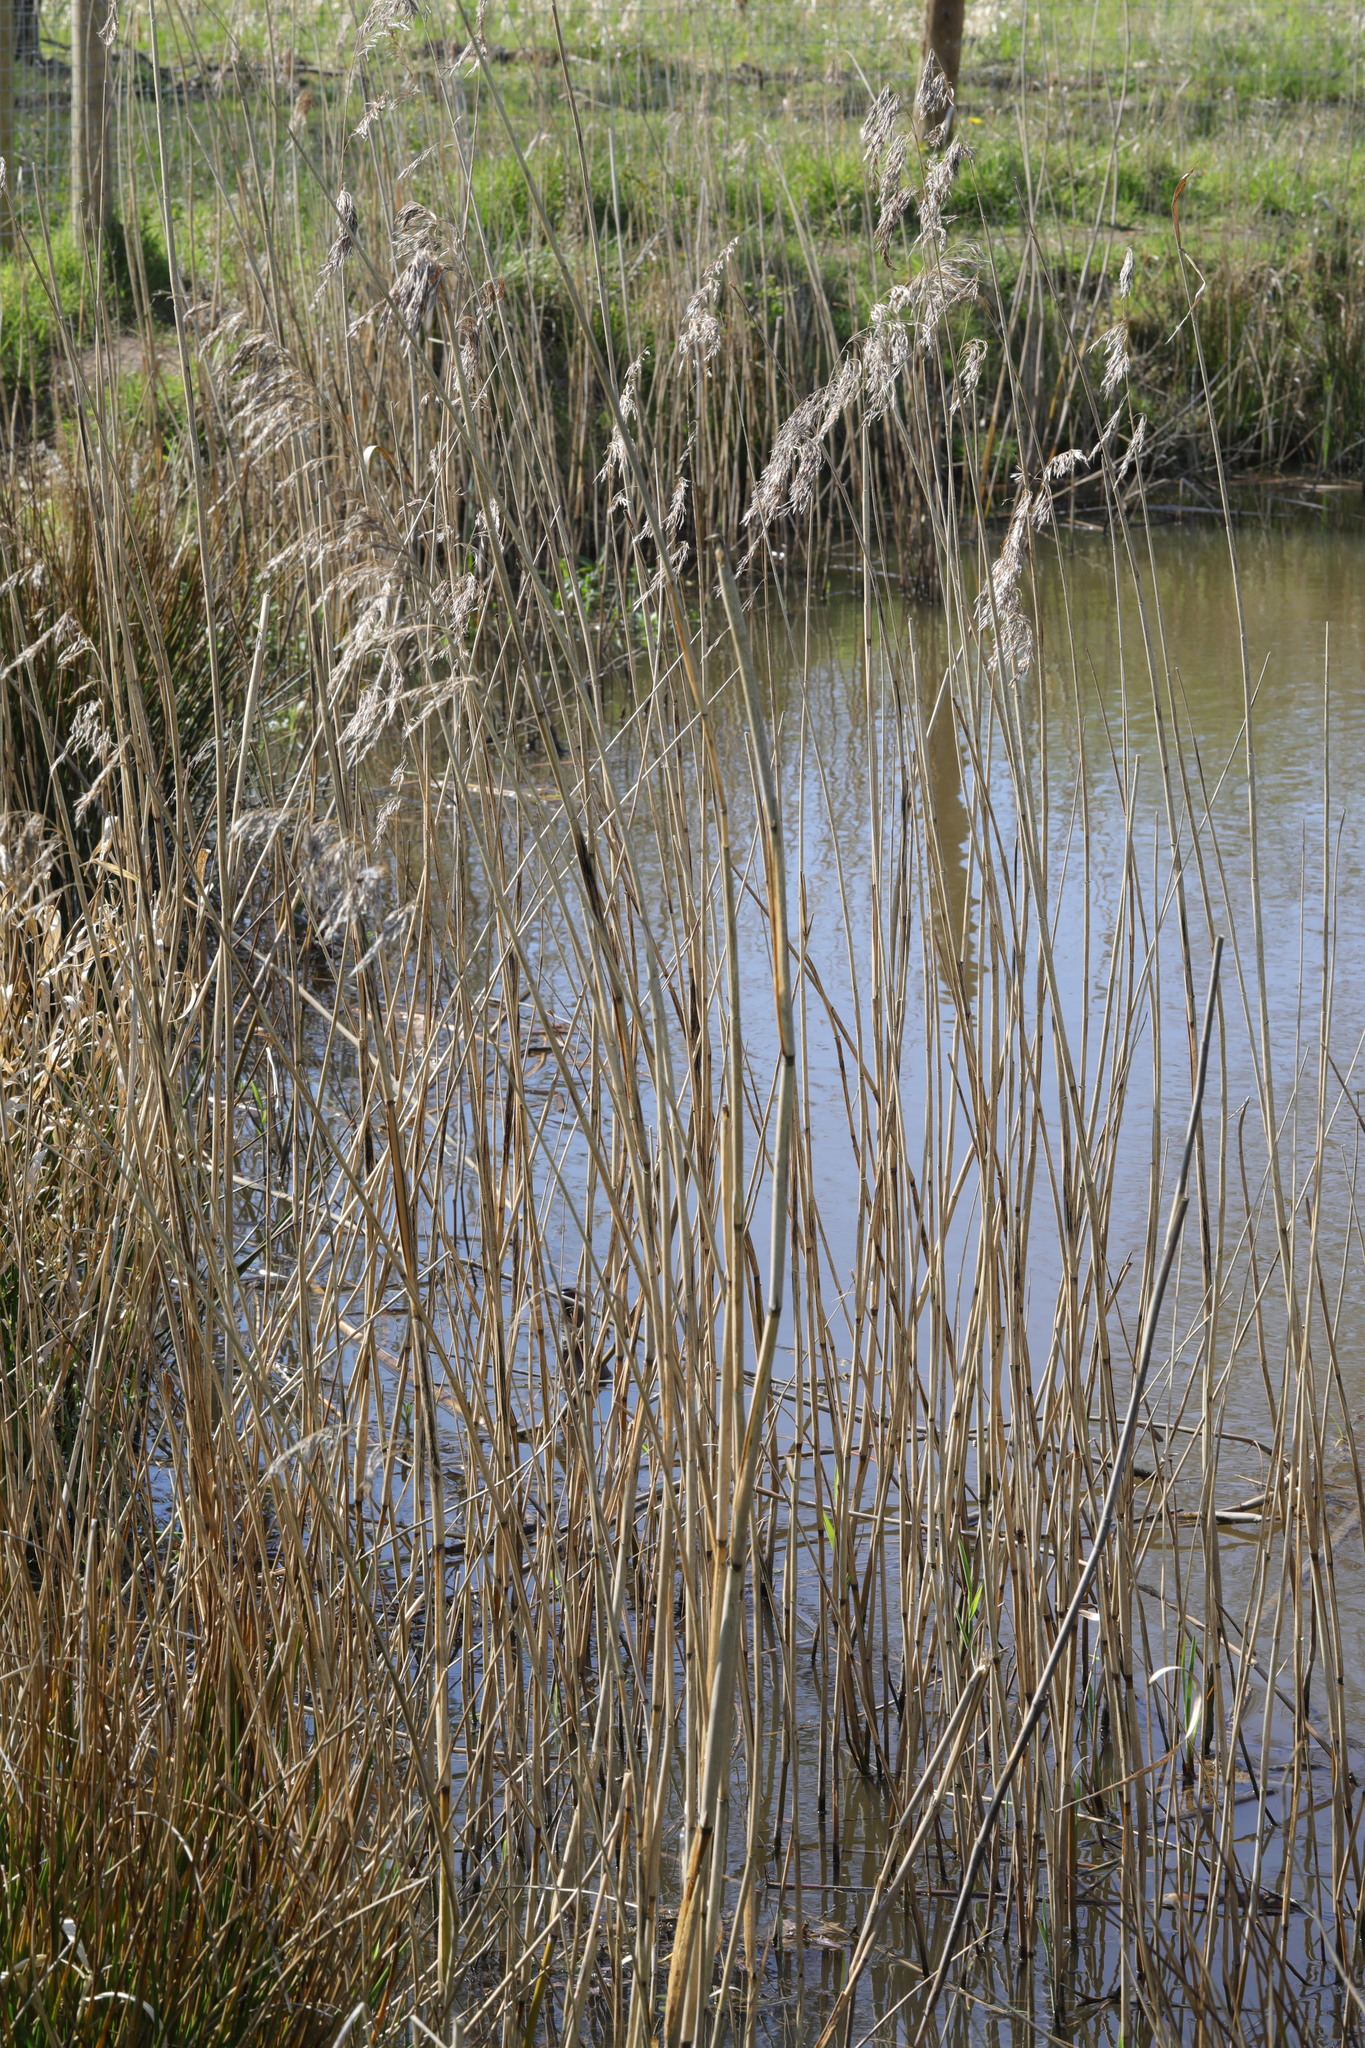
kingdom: Plantae
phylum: Tracheophyta
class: Liliopsida
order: Poales
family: Poaceae
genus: Phragmites
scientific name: Phragmites australis
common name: Common reed
